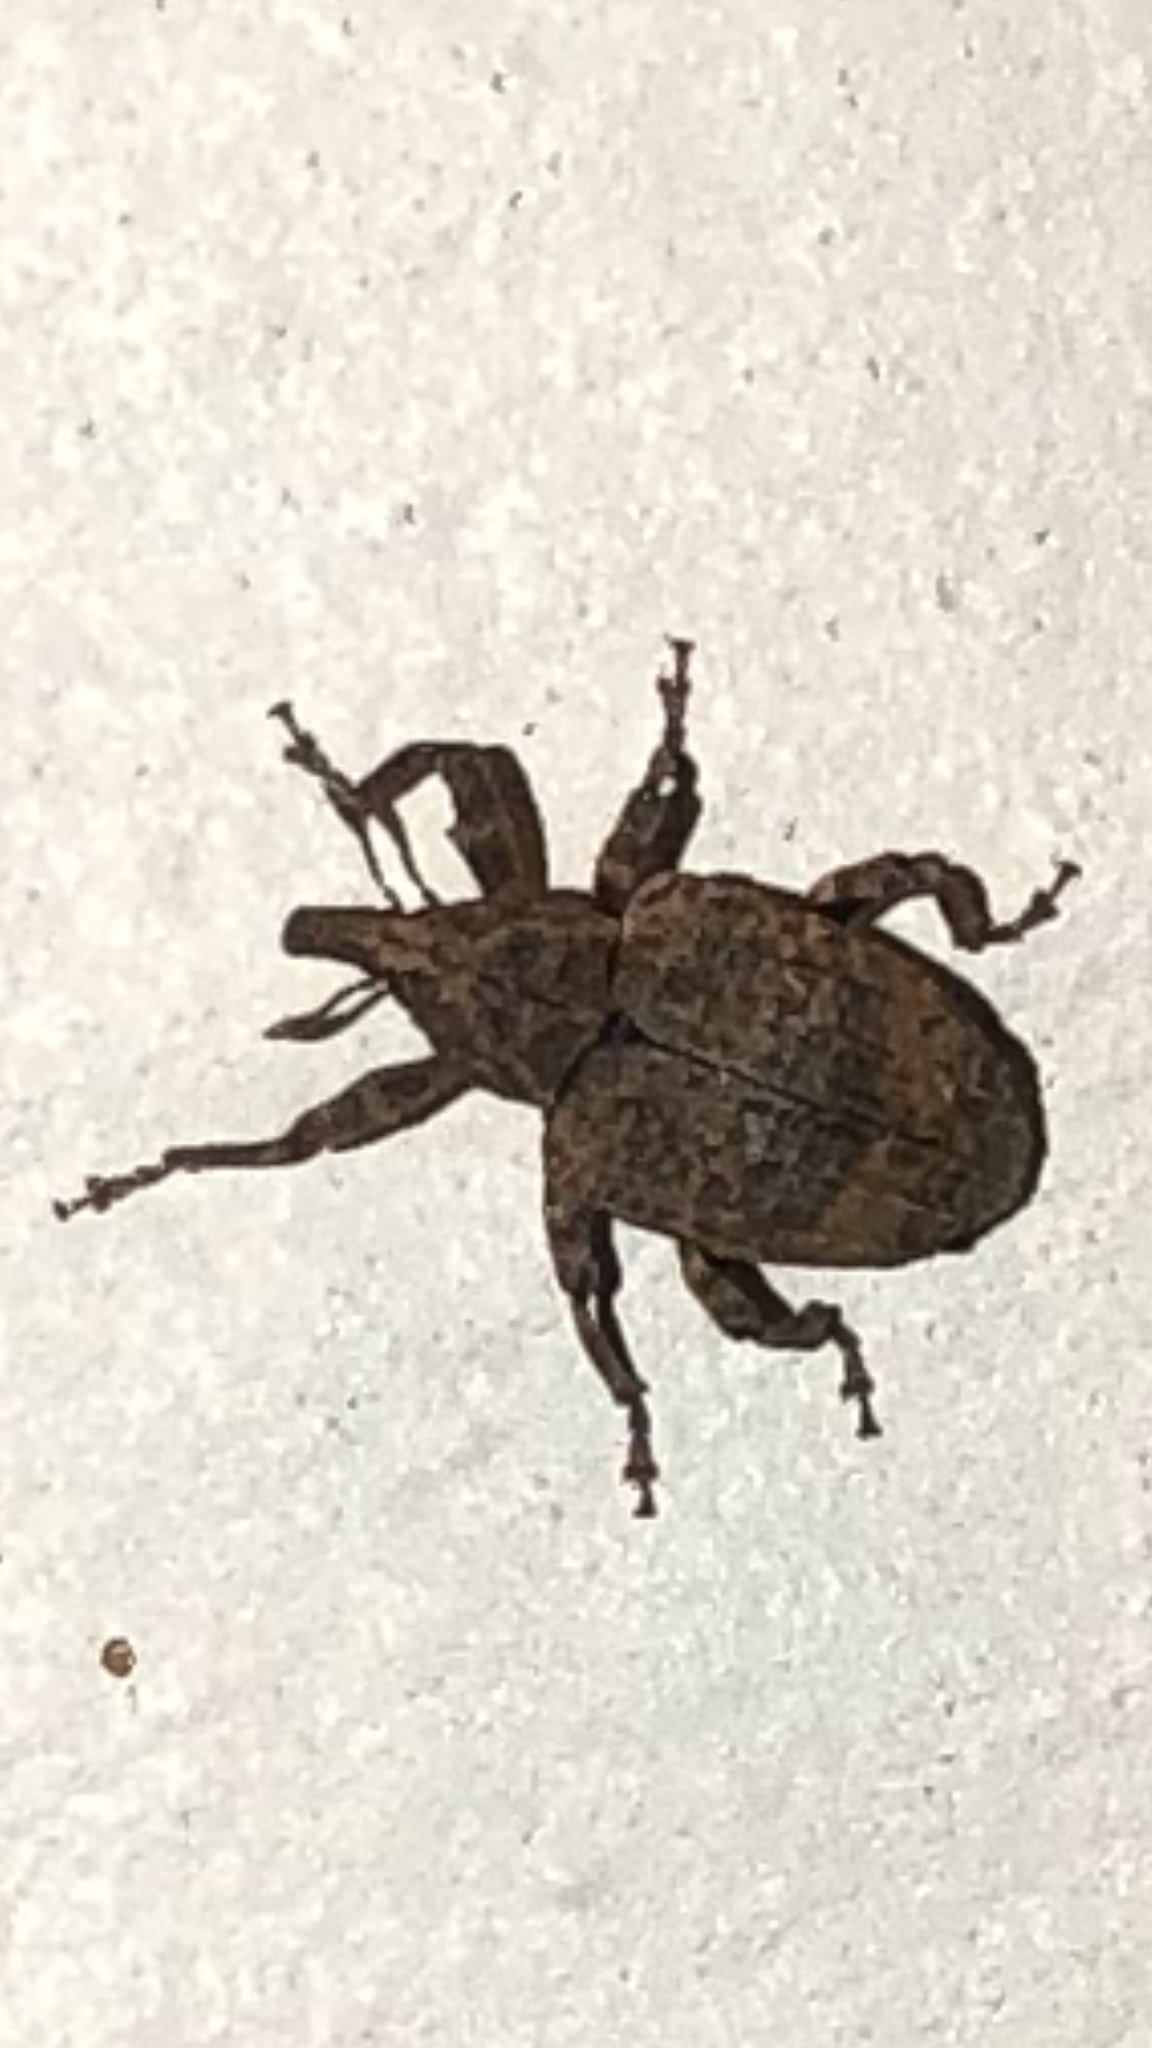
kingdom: Animalia
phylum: Arthropoda
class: Insecta
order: Coleoptera
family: Curculionidae
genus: Conotrachelus
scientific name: Conotrachelus seniculus
